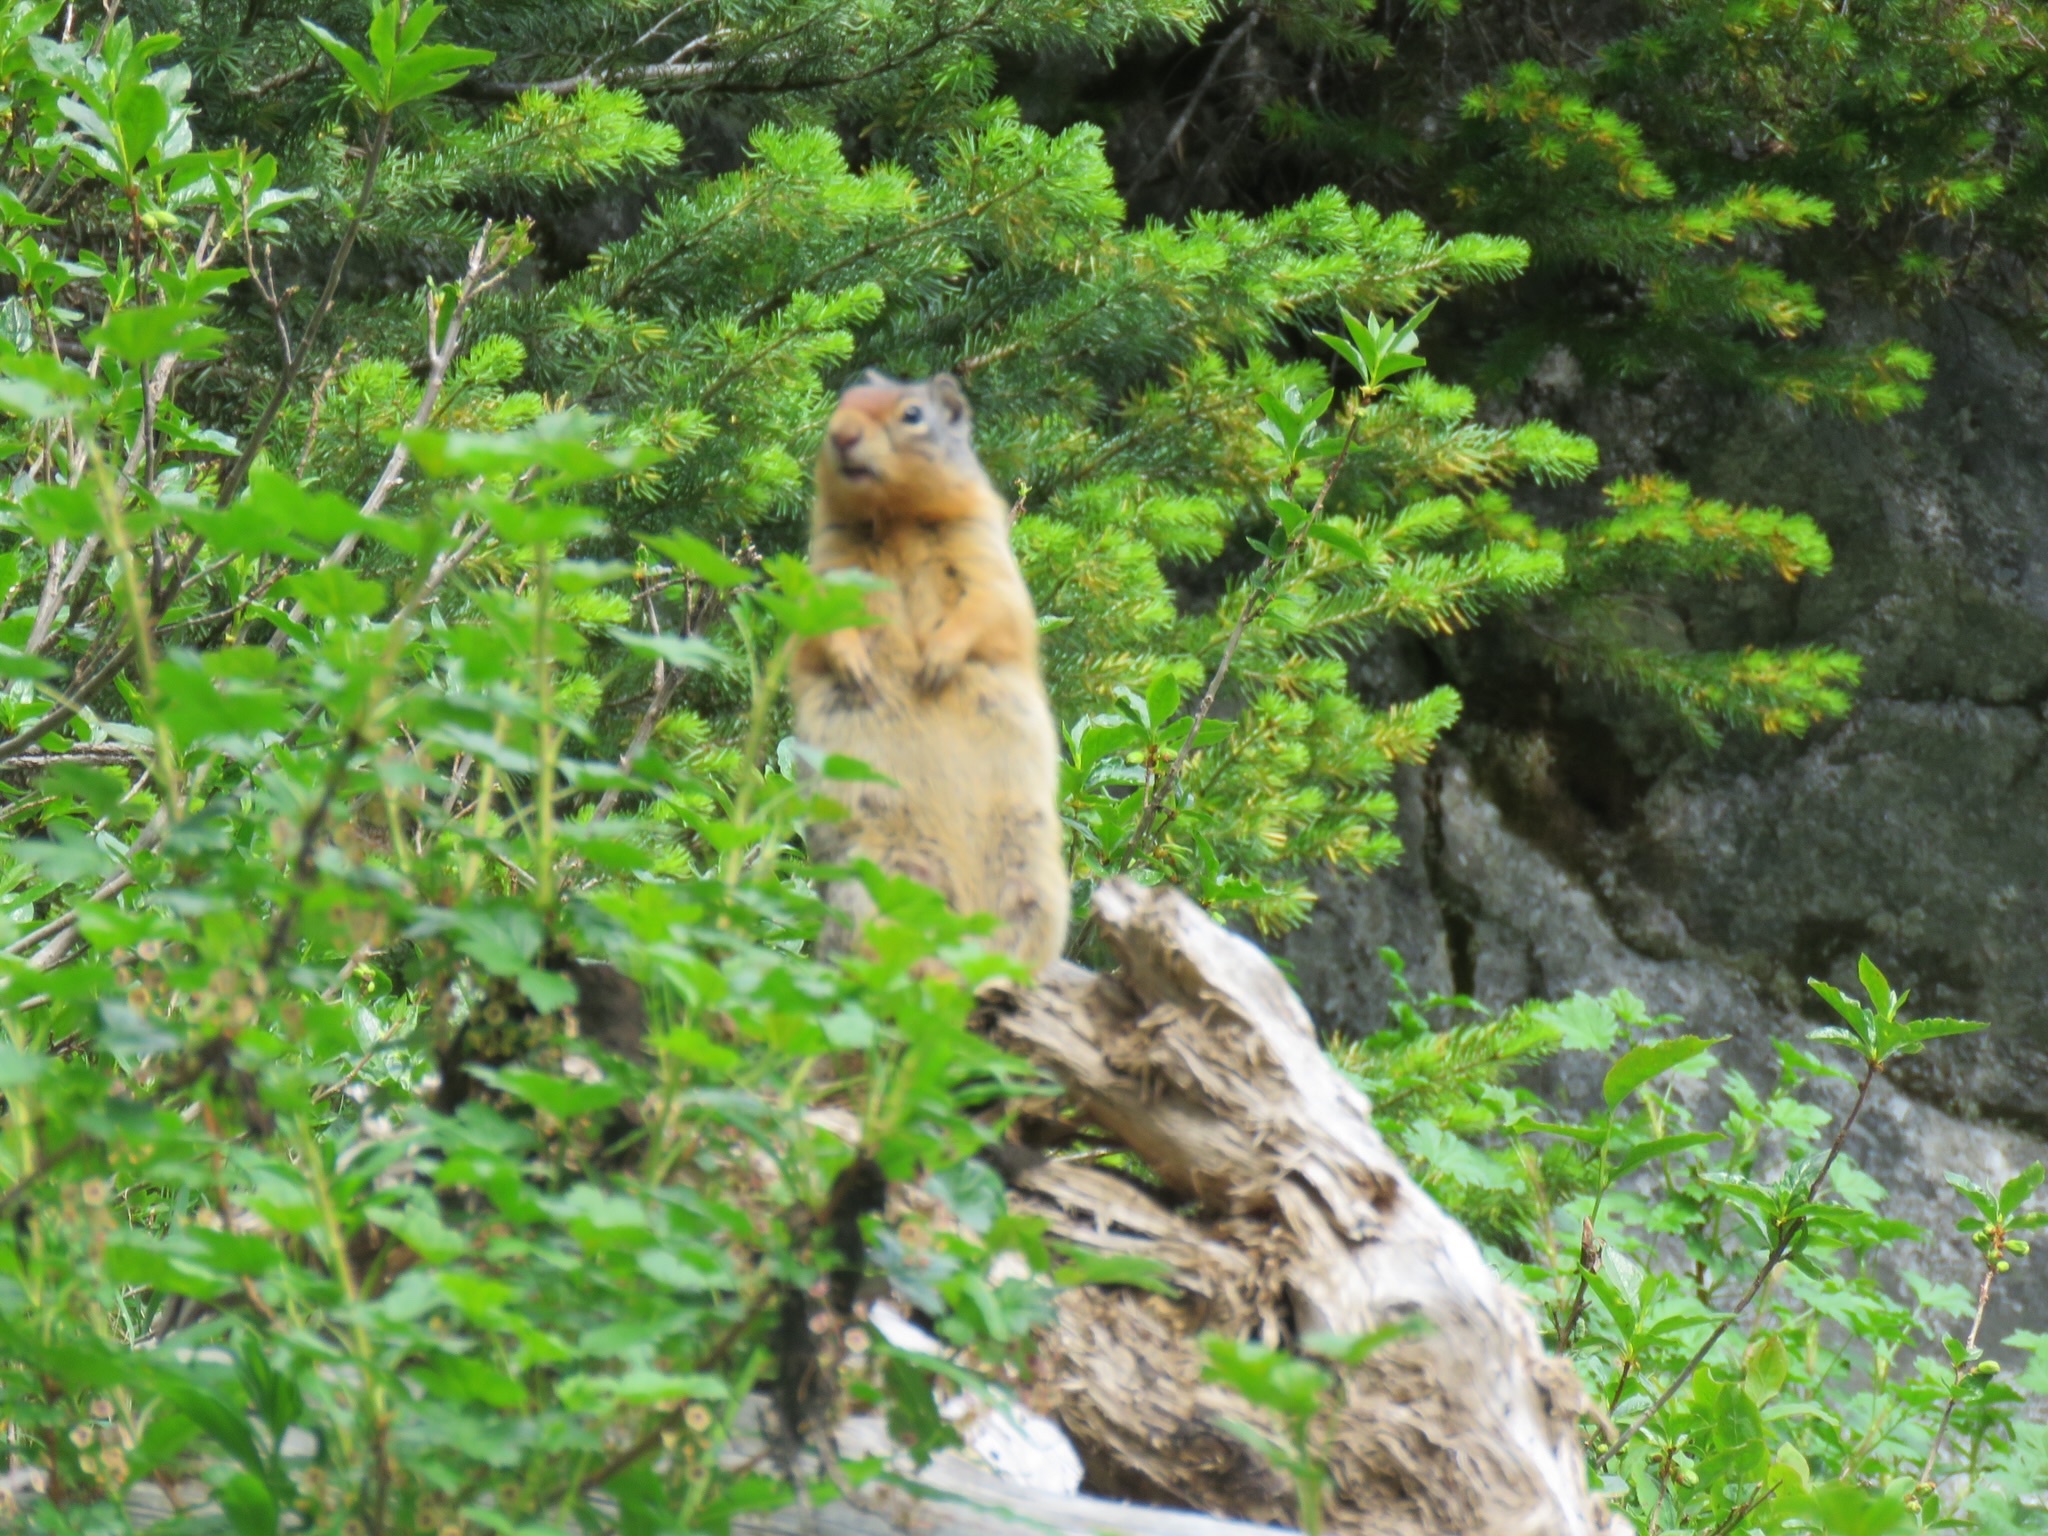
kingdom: Animalia
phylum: Chordata
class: Mammalia
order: Rodentia
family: Sciuridae
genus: Urocitellus
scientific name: Urocitellus columbianus
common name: Columbian ground squirrel
